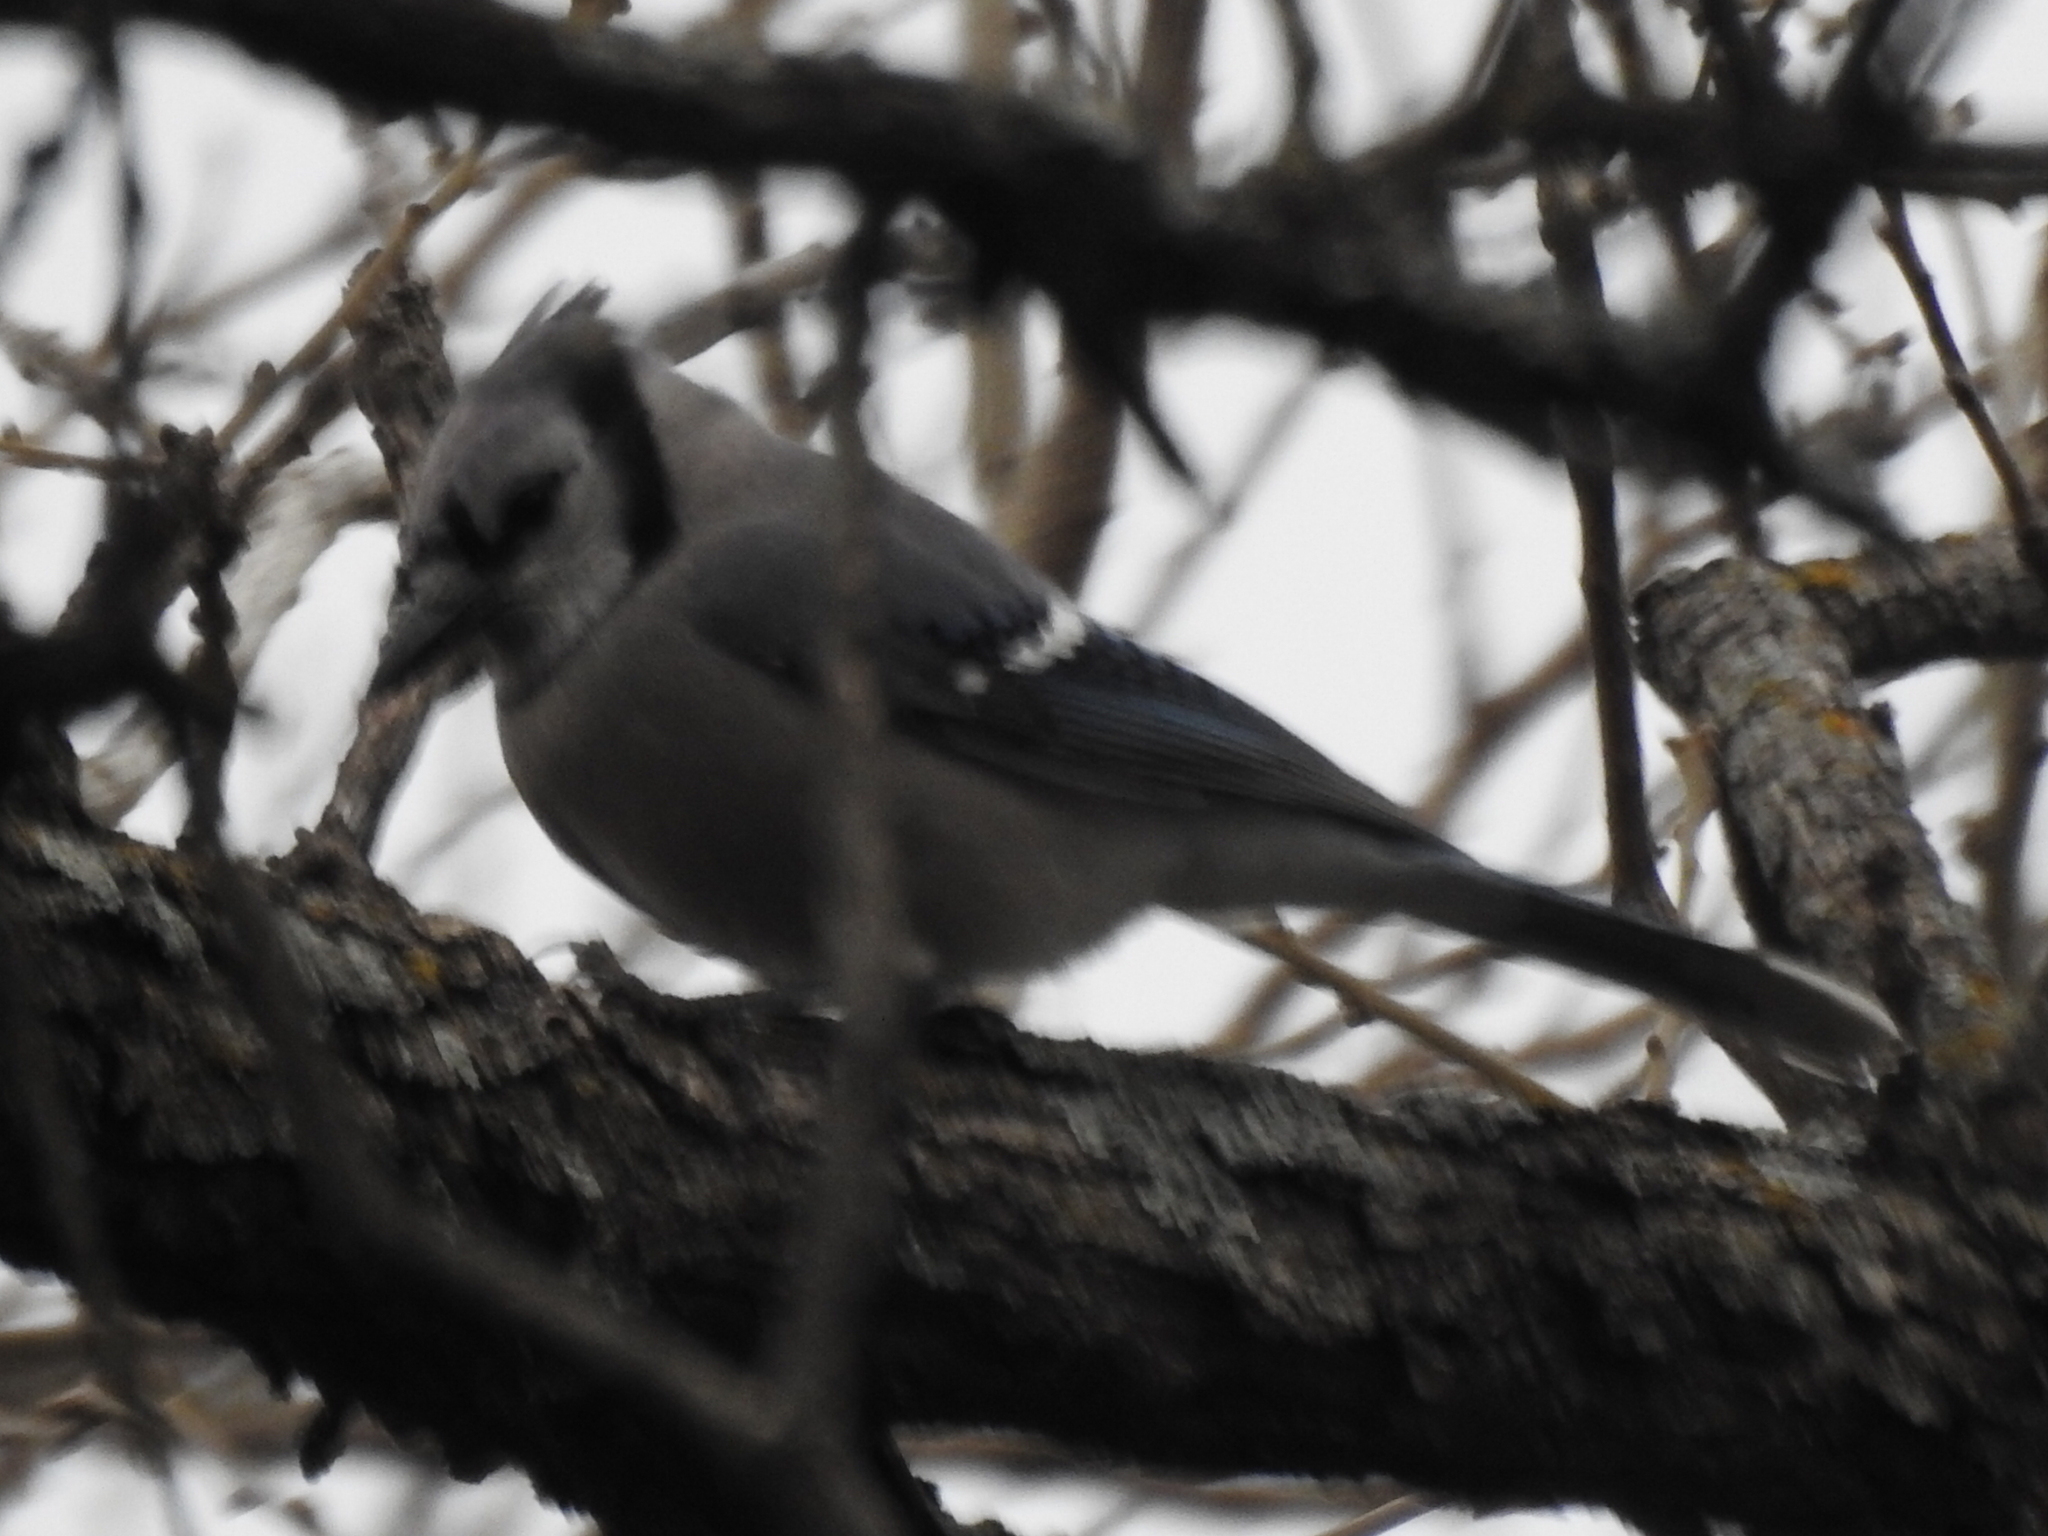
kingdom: Animalia
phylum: Chordata
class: Aves
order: Passeriformes
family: Corvidae
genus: Cyanocitta
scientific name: Cyanocitta cristata
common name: Blue jay
